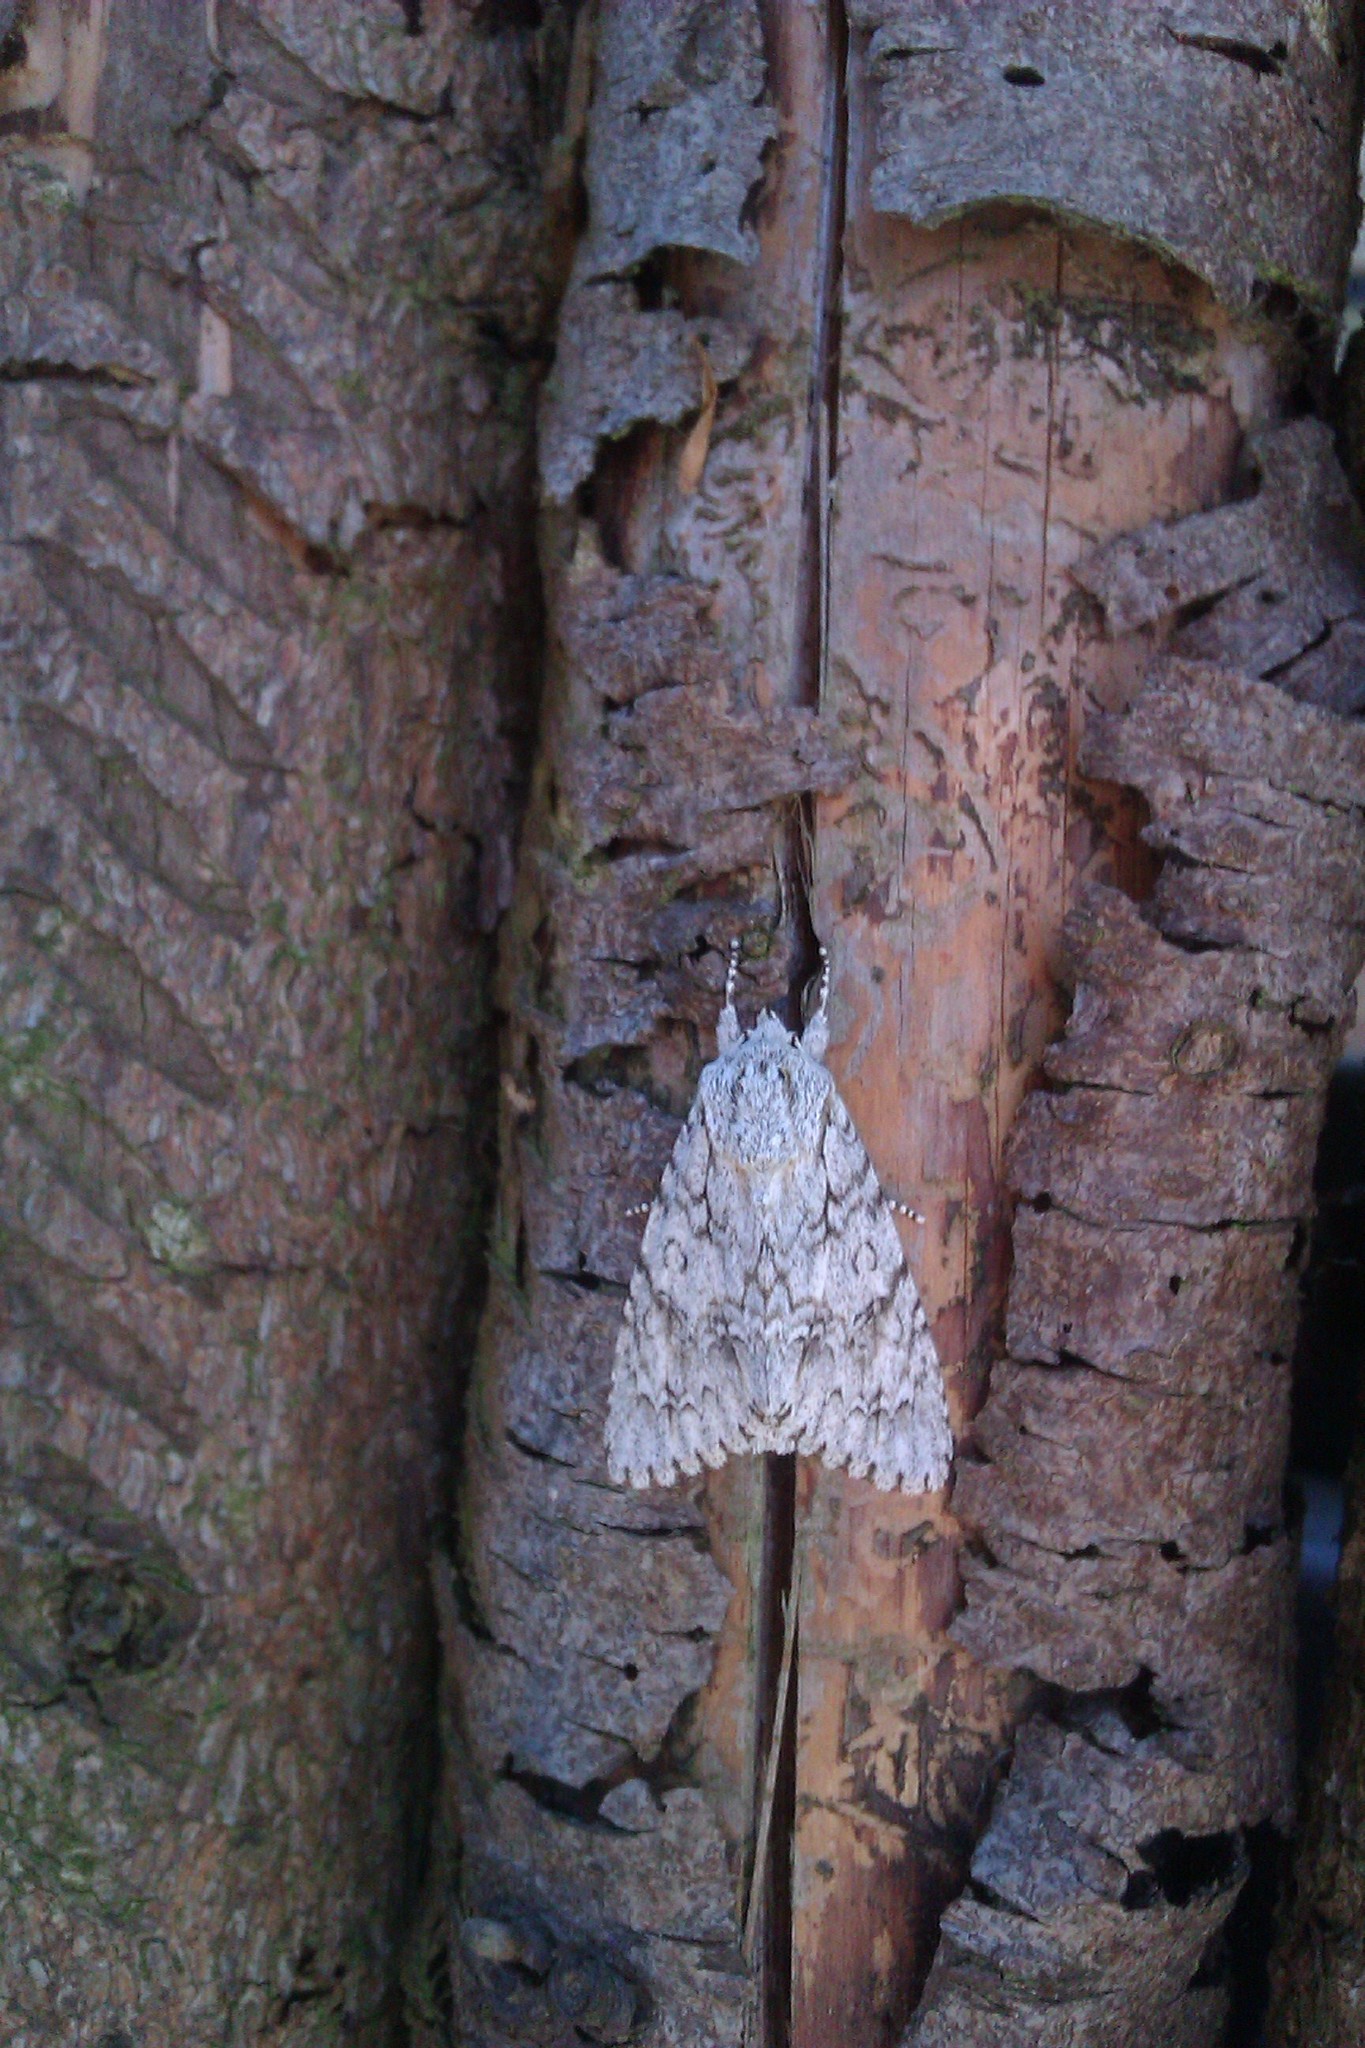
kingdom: Animalia
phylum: Arthropoda
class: Insecta
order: Lepidoptera
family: Noctuidae
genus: Acronicta
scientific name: Acronicta aceris
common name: Sycamore
